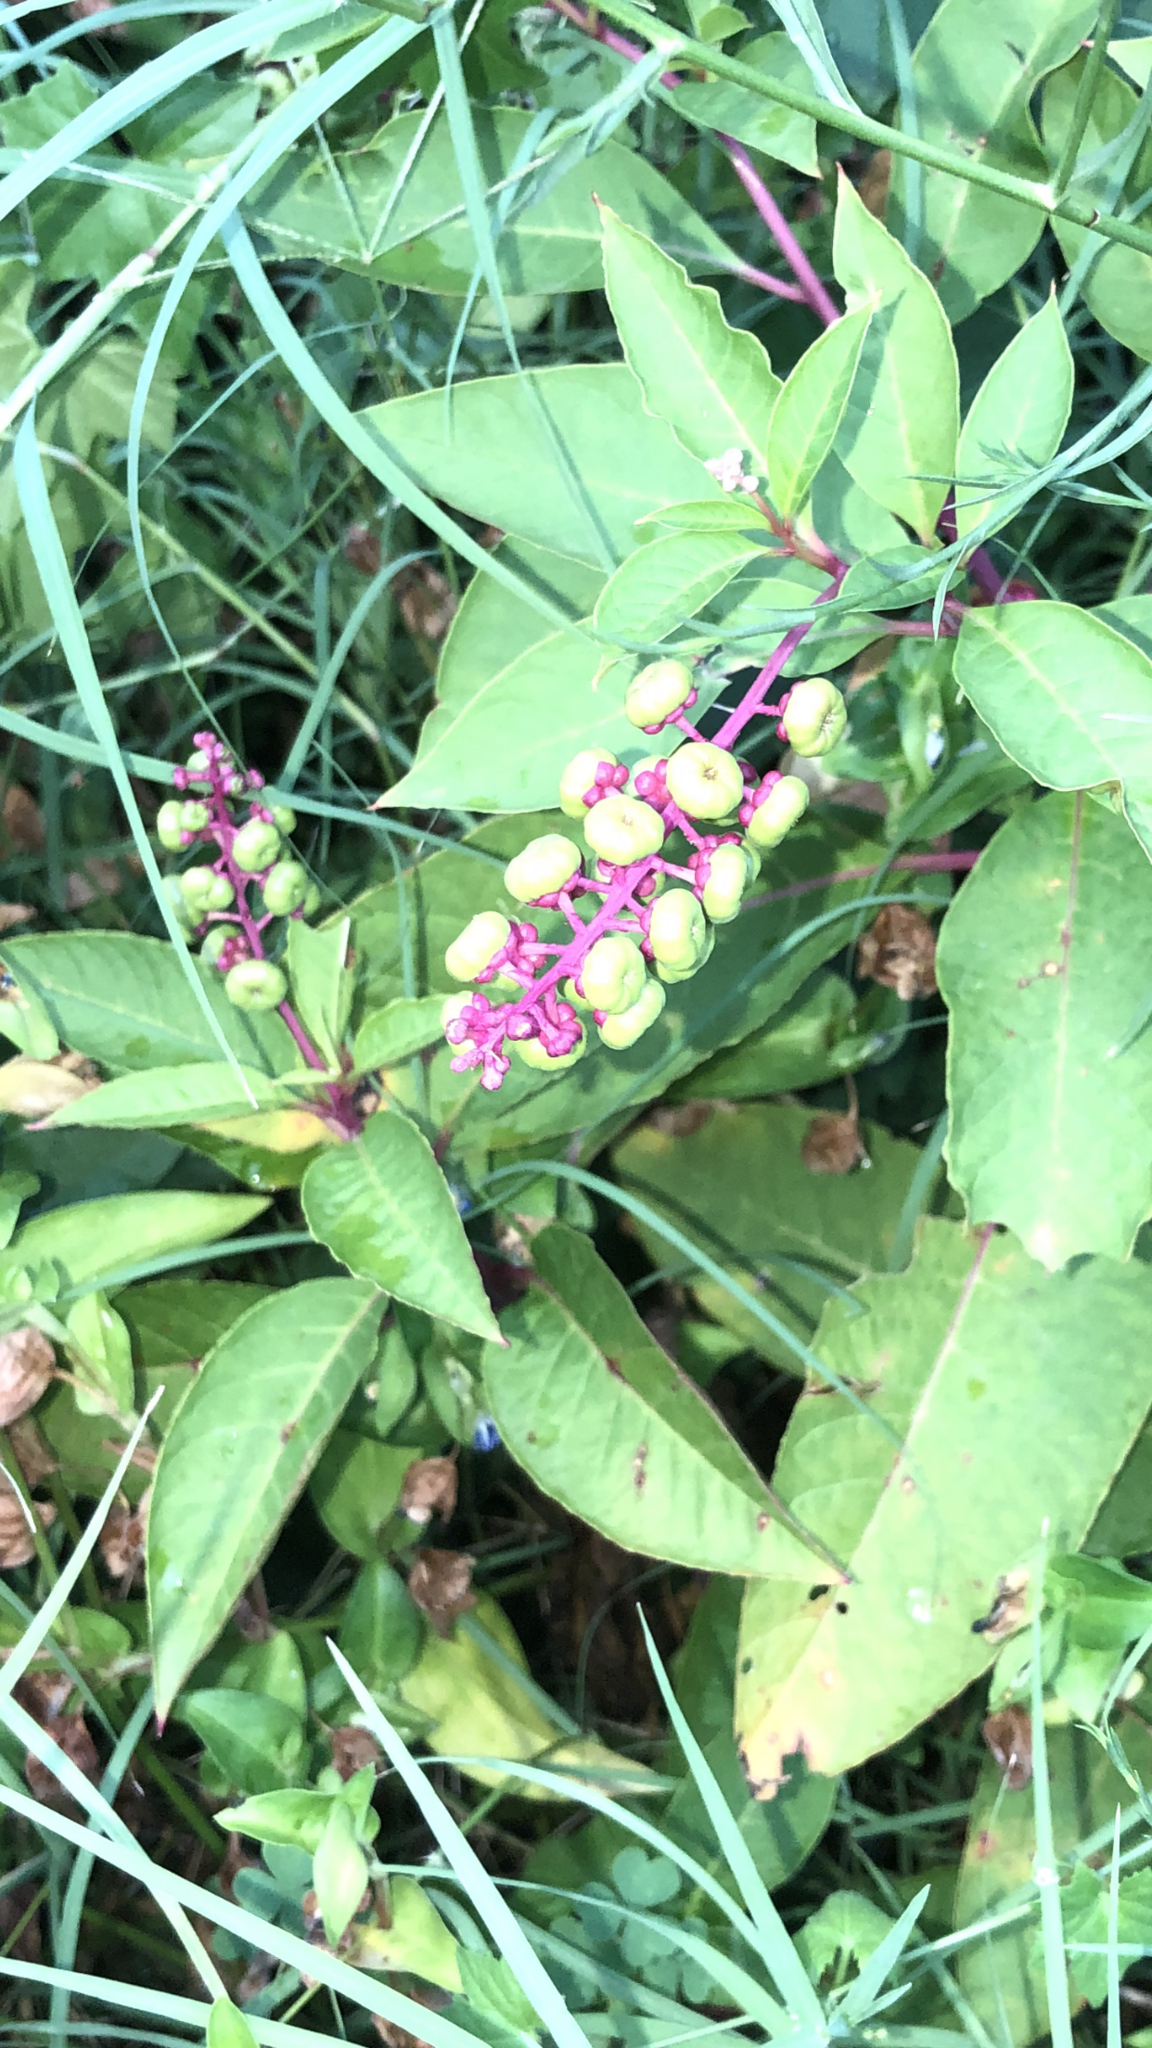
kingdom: Plantae
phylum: Tracheophyta
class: Magnoliopsida
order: Caryophyllales
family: Phytolaccaceae
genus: Phytolacca
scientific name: Phytolacca americana
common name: American pokeweed
